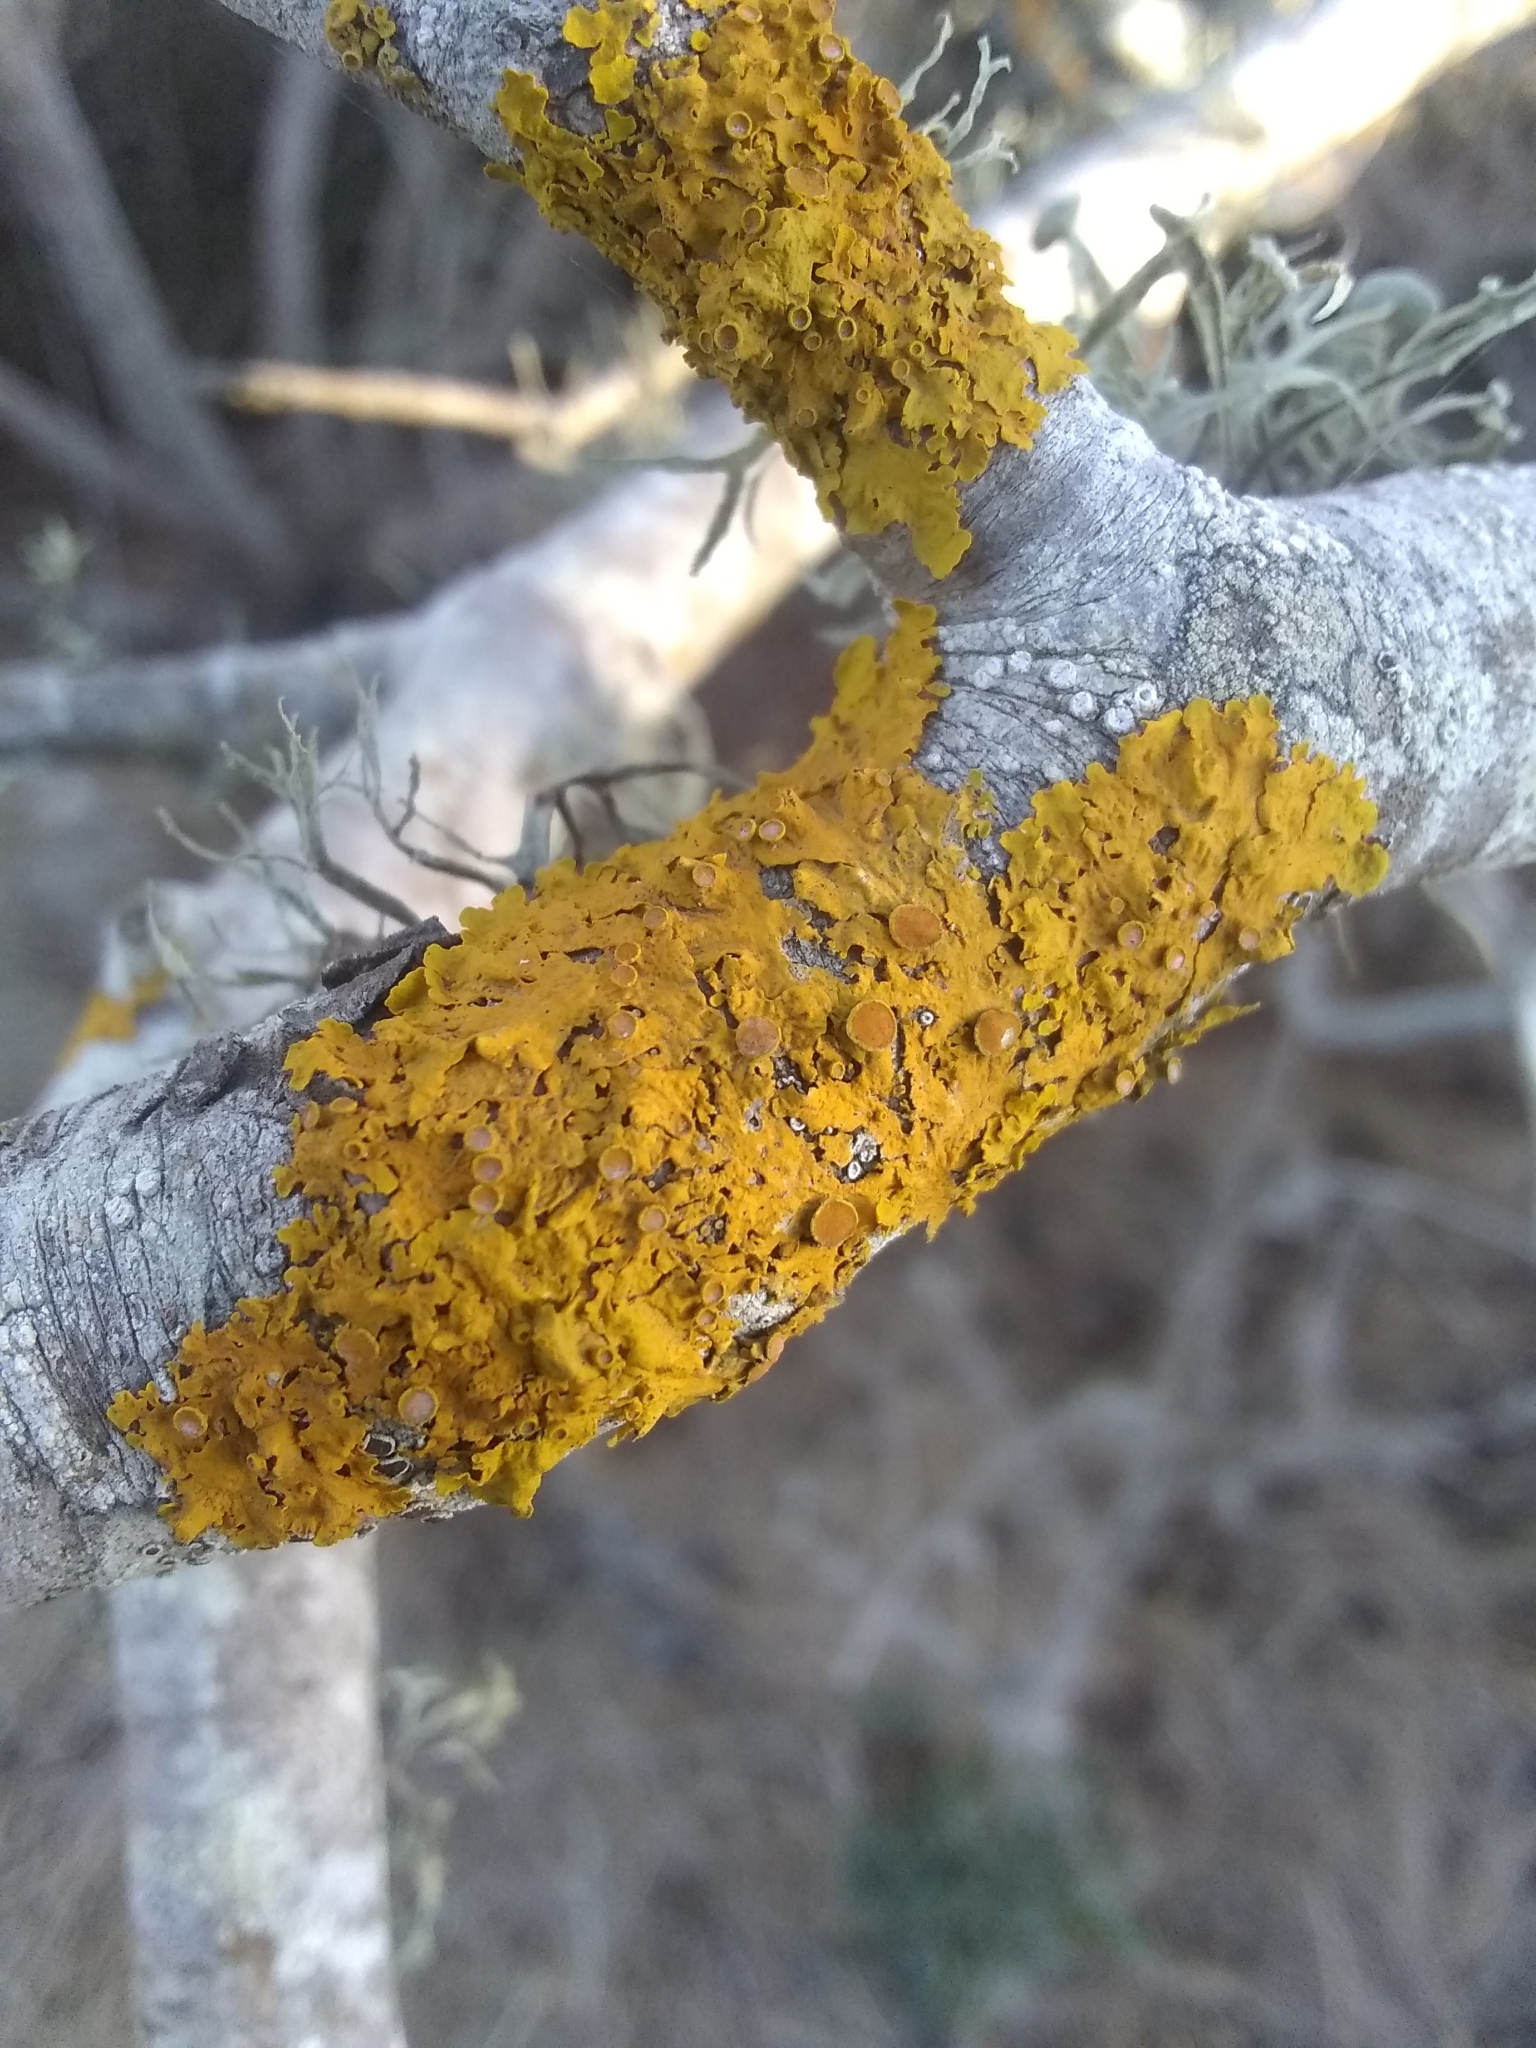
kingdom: Fungi
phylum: Ascomycota
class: Lecanoromycetes
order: Teloschistales
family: Teloschistaceae
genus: Xanthoria
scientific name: Xanthoria parietina
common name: Common orange lichen
